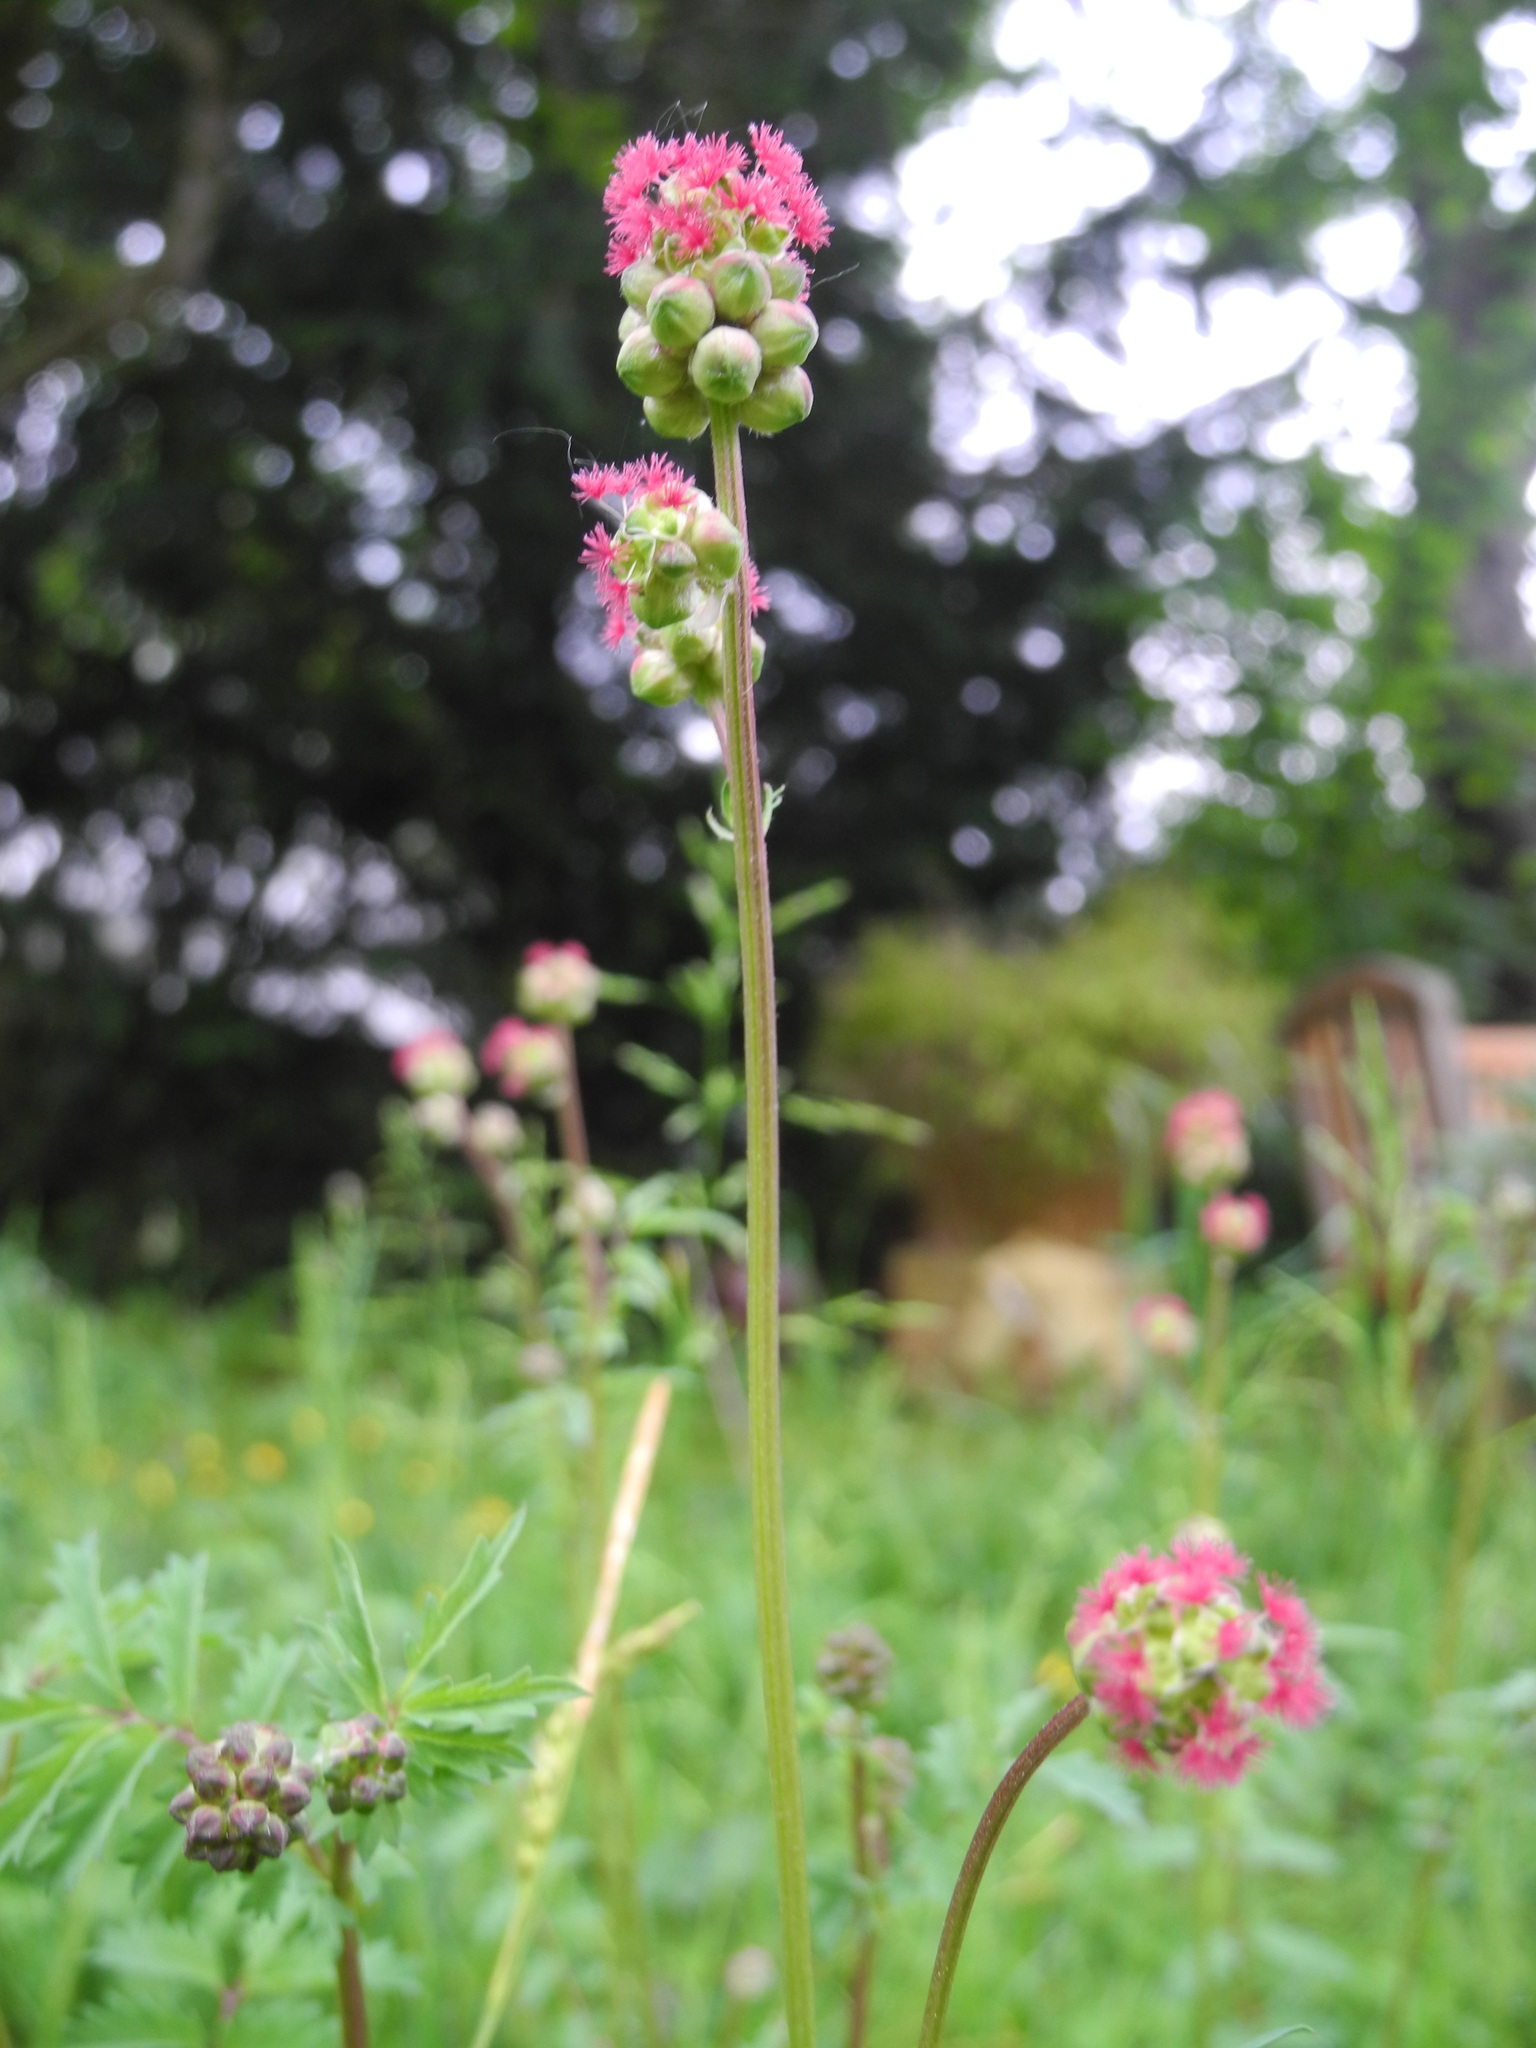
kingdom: Plantae
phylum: Tracheophyta
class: Magnoliopsida
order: Rosales
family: Rosaceae
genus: Poterium
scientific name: Poterium sanguisorba
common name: Salad burnet
